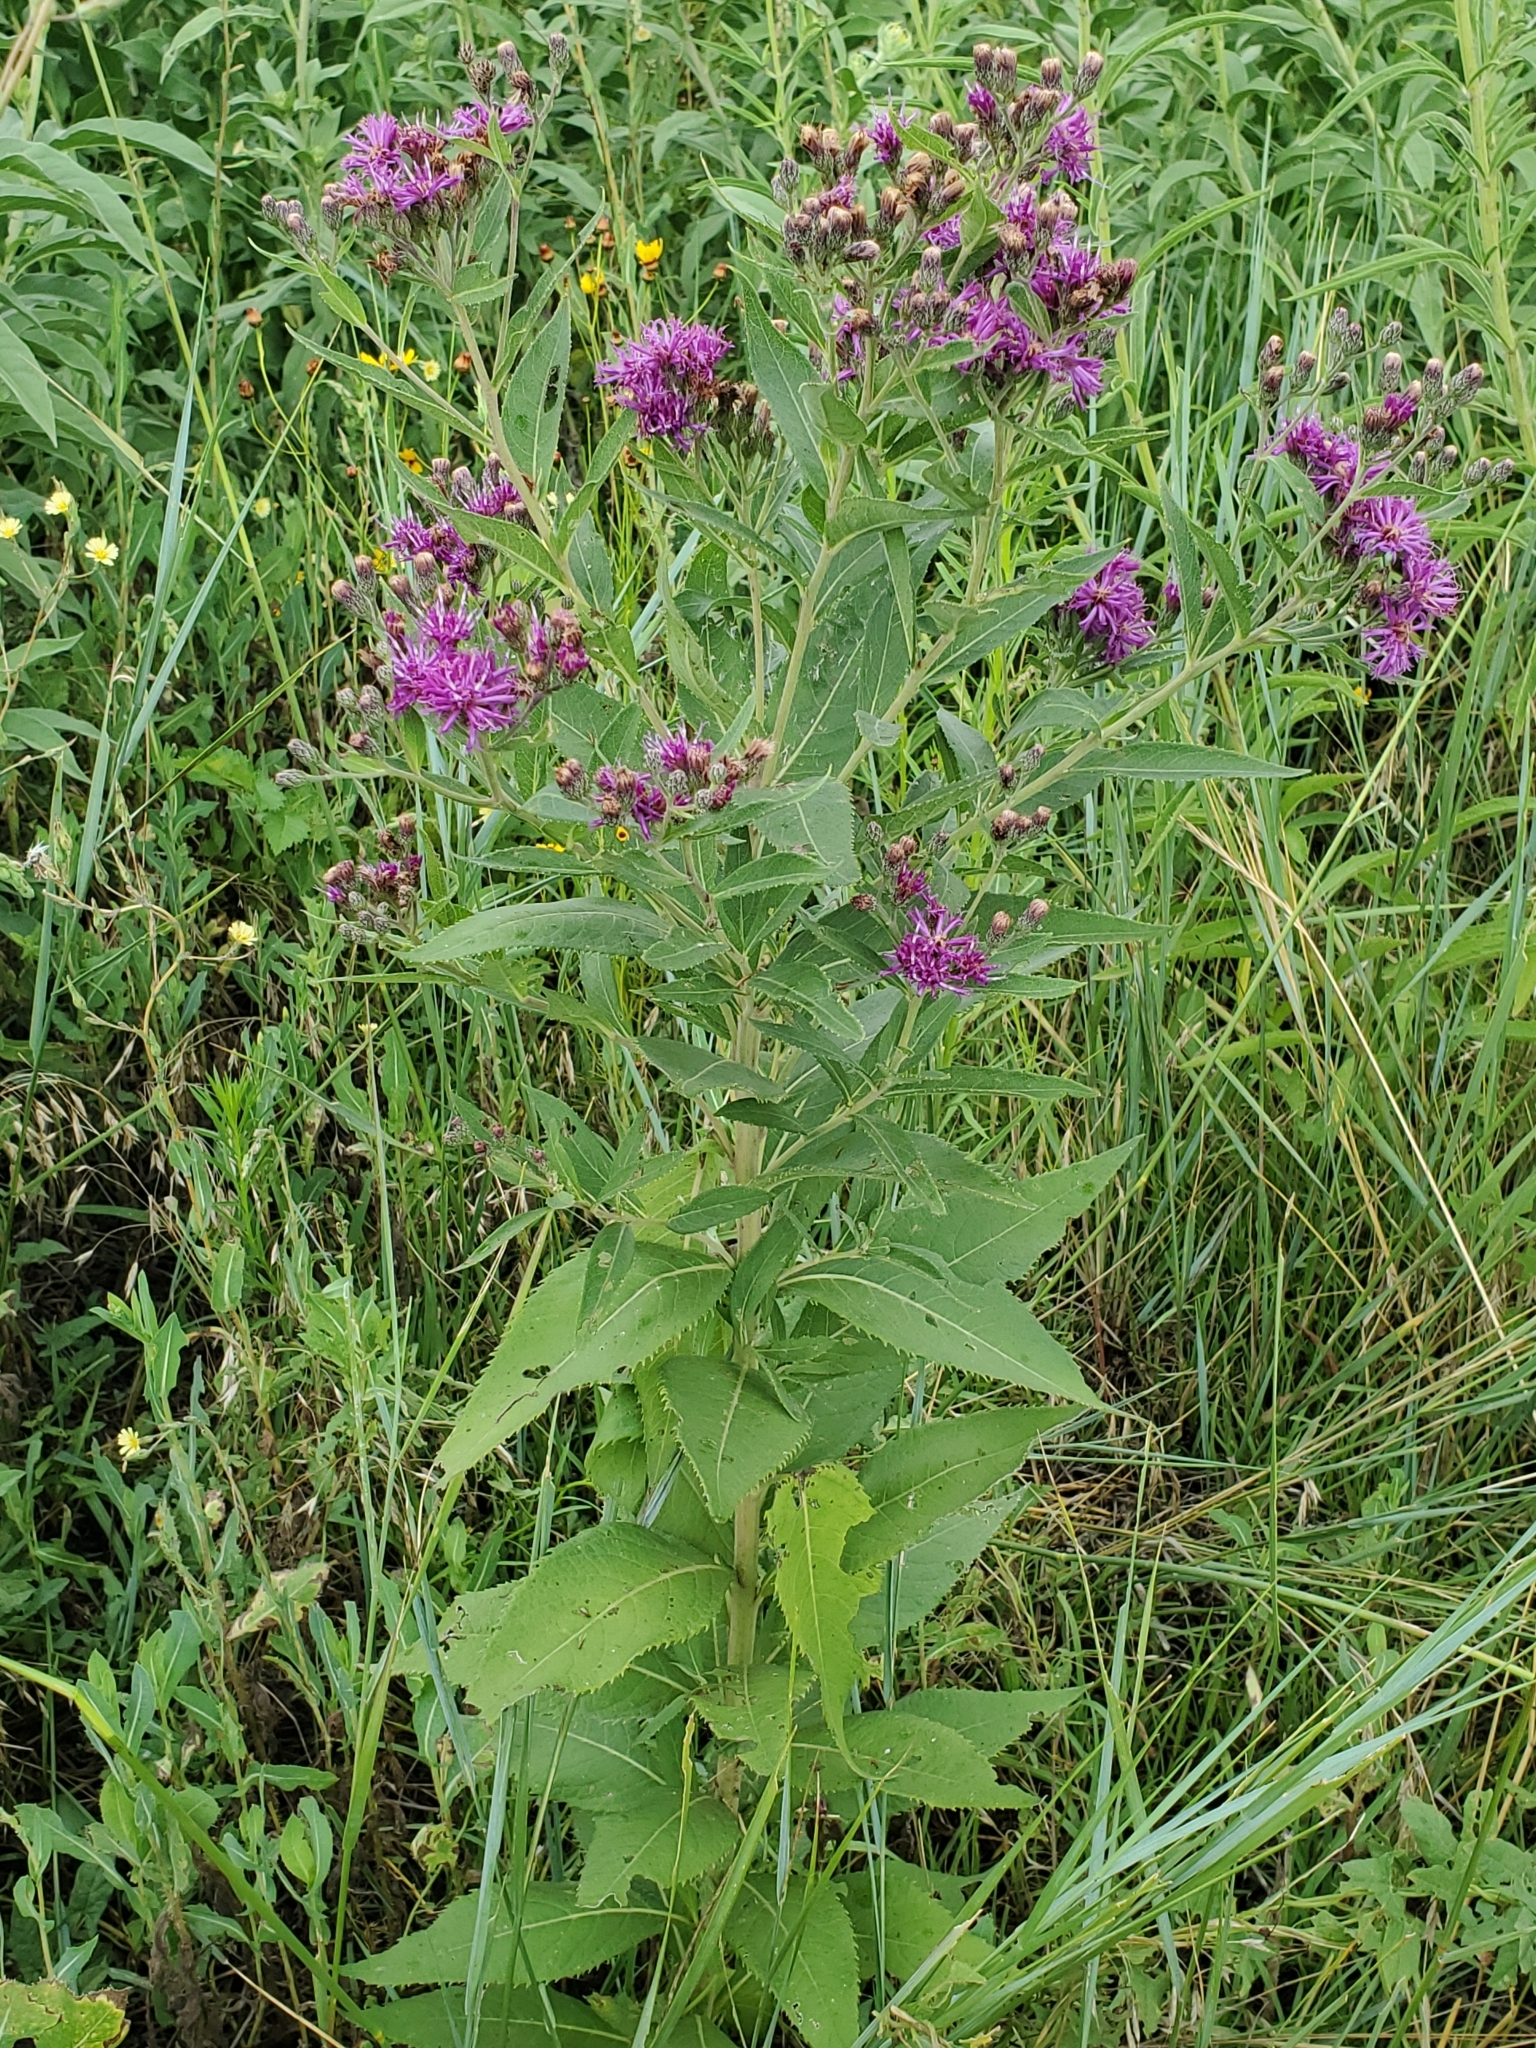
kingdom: Plantae
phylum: Tracheophyta
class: Magnoliopsida
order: Asterales
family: Asteraceae
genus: Vernonia
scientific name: Vernonia baldwinii
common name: Western ironweed
